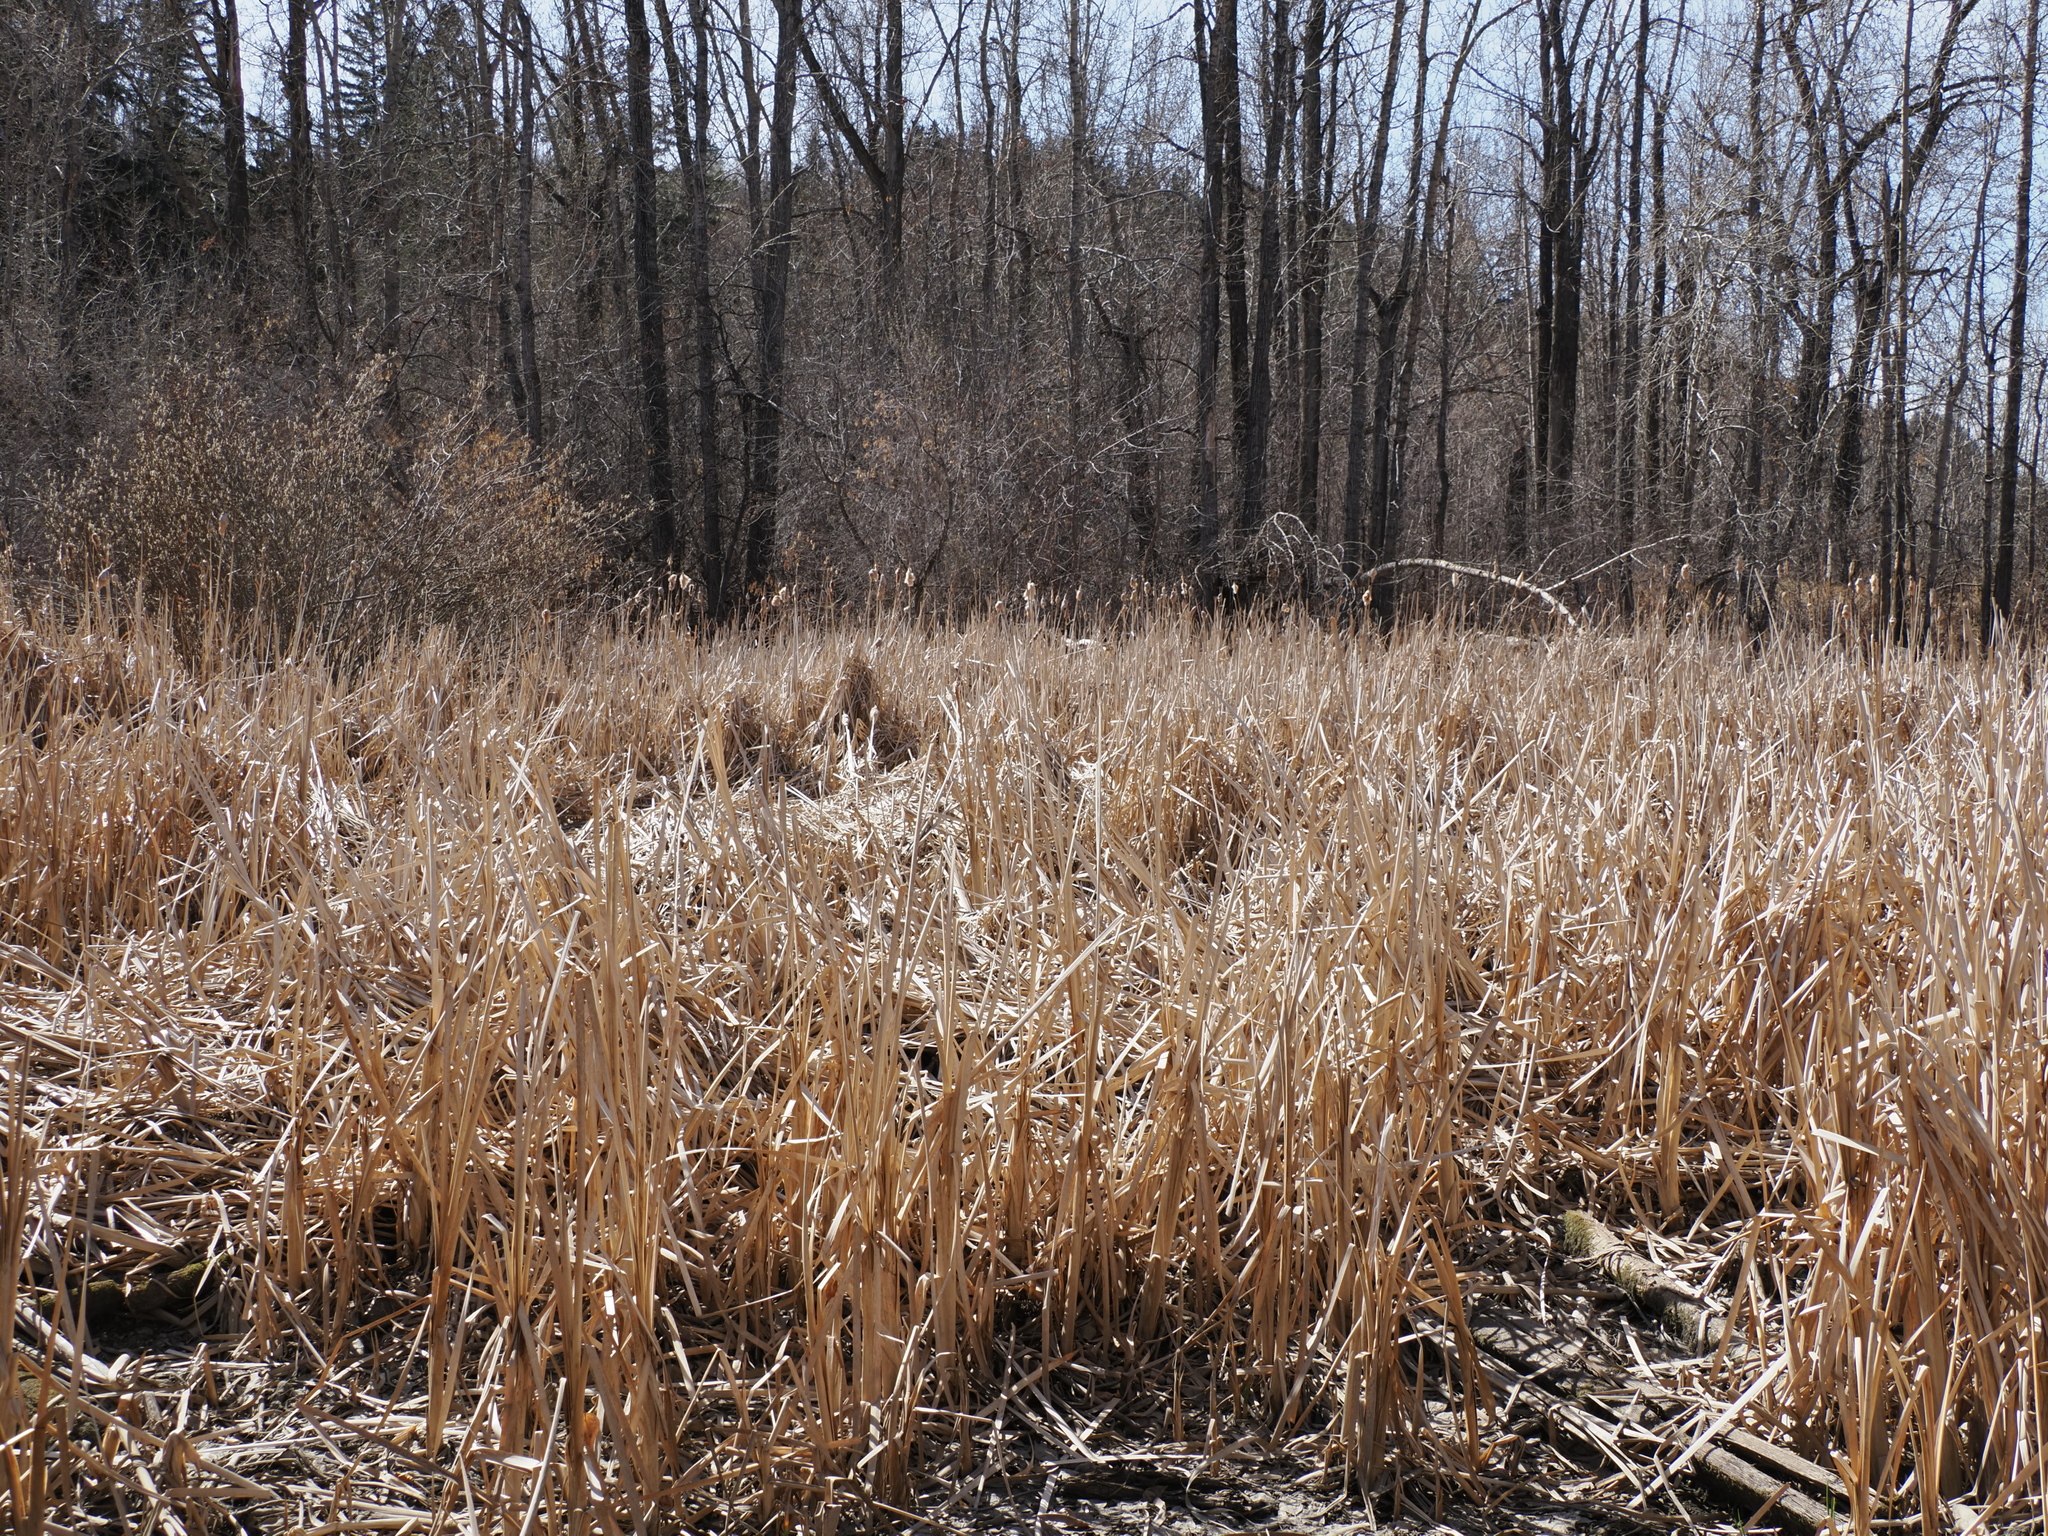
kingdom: Plantae
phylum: Tracheophyta
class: Liliopsida
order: Poales
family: Typhaceae
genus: Typha
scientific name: Typha latifolia
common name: Broadleaf cattail
